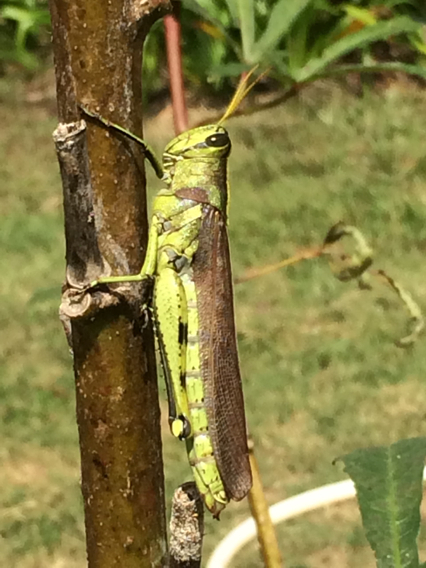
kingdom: Animalia
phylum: Arthropoda
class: Insecta
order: Orthoptera
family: Acrididae
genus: Schistocerca
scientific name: Schistocerca obscura
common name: Obscure bird grasshopper
